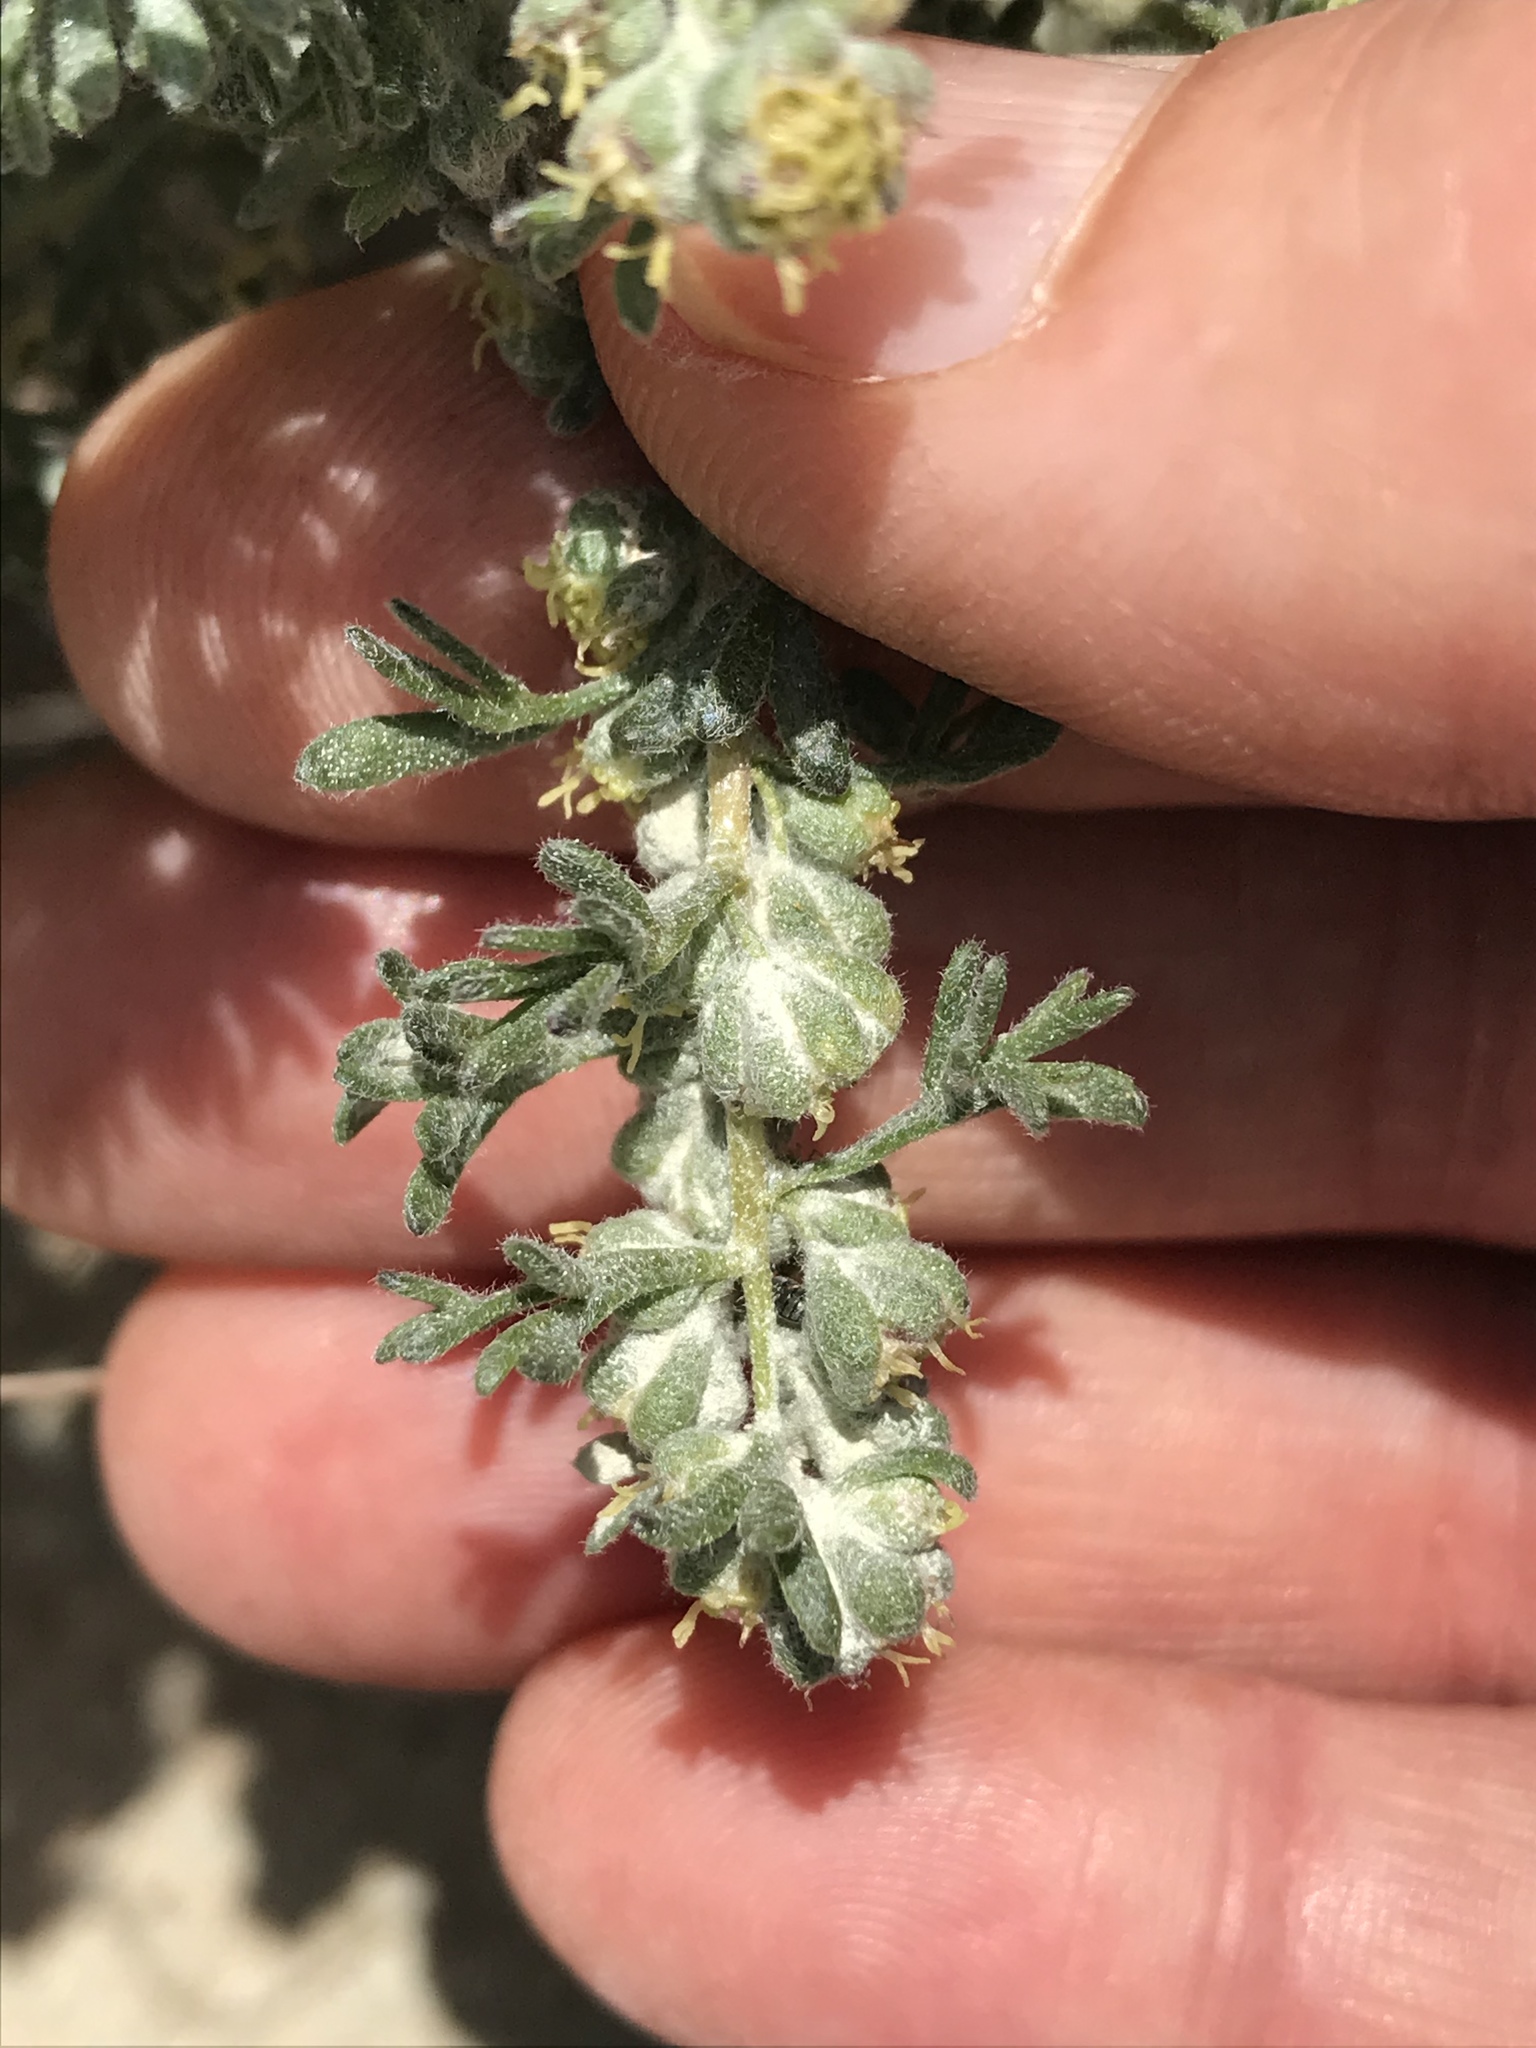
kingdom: Plantae
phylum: Tracheophyta
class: Magnoliopsida
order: Asterales
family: Asteraceae
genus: Ambrosia
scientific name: Ambrosia dumosa
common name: Bur-sage
